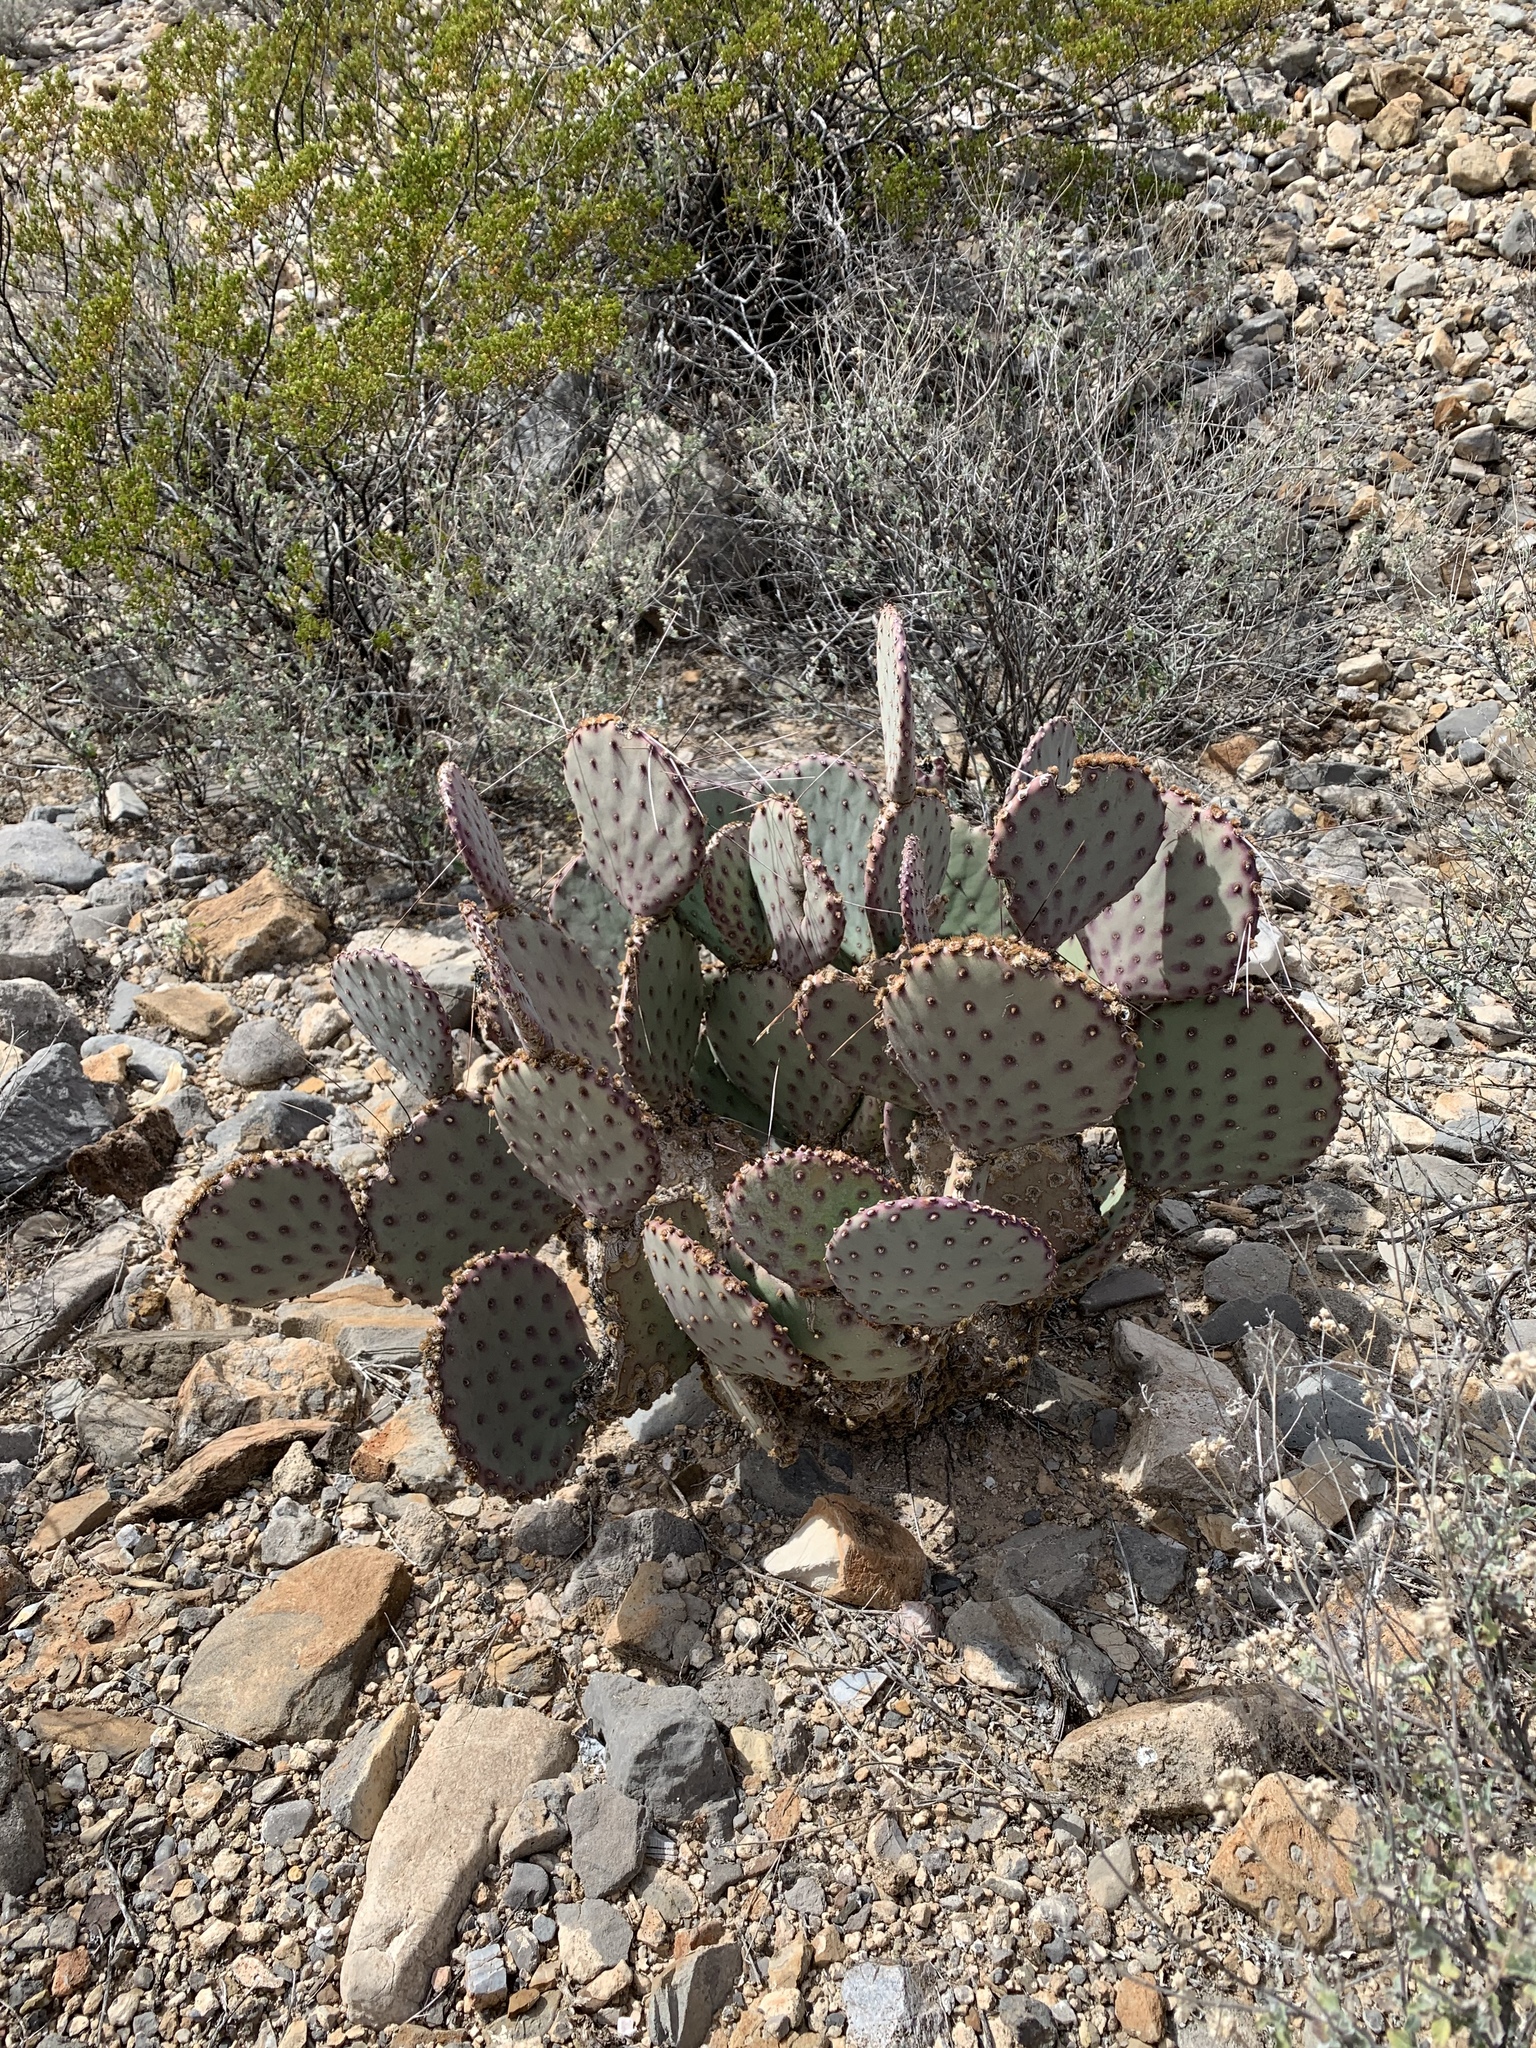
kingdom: Plantae
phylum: Tracheophyta
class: Magnoliopsida
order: Caryophyllales
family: Cactaceae
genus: Opuntia
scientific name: Opuntia macrocentra
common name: Purple prickly-pear
